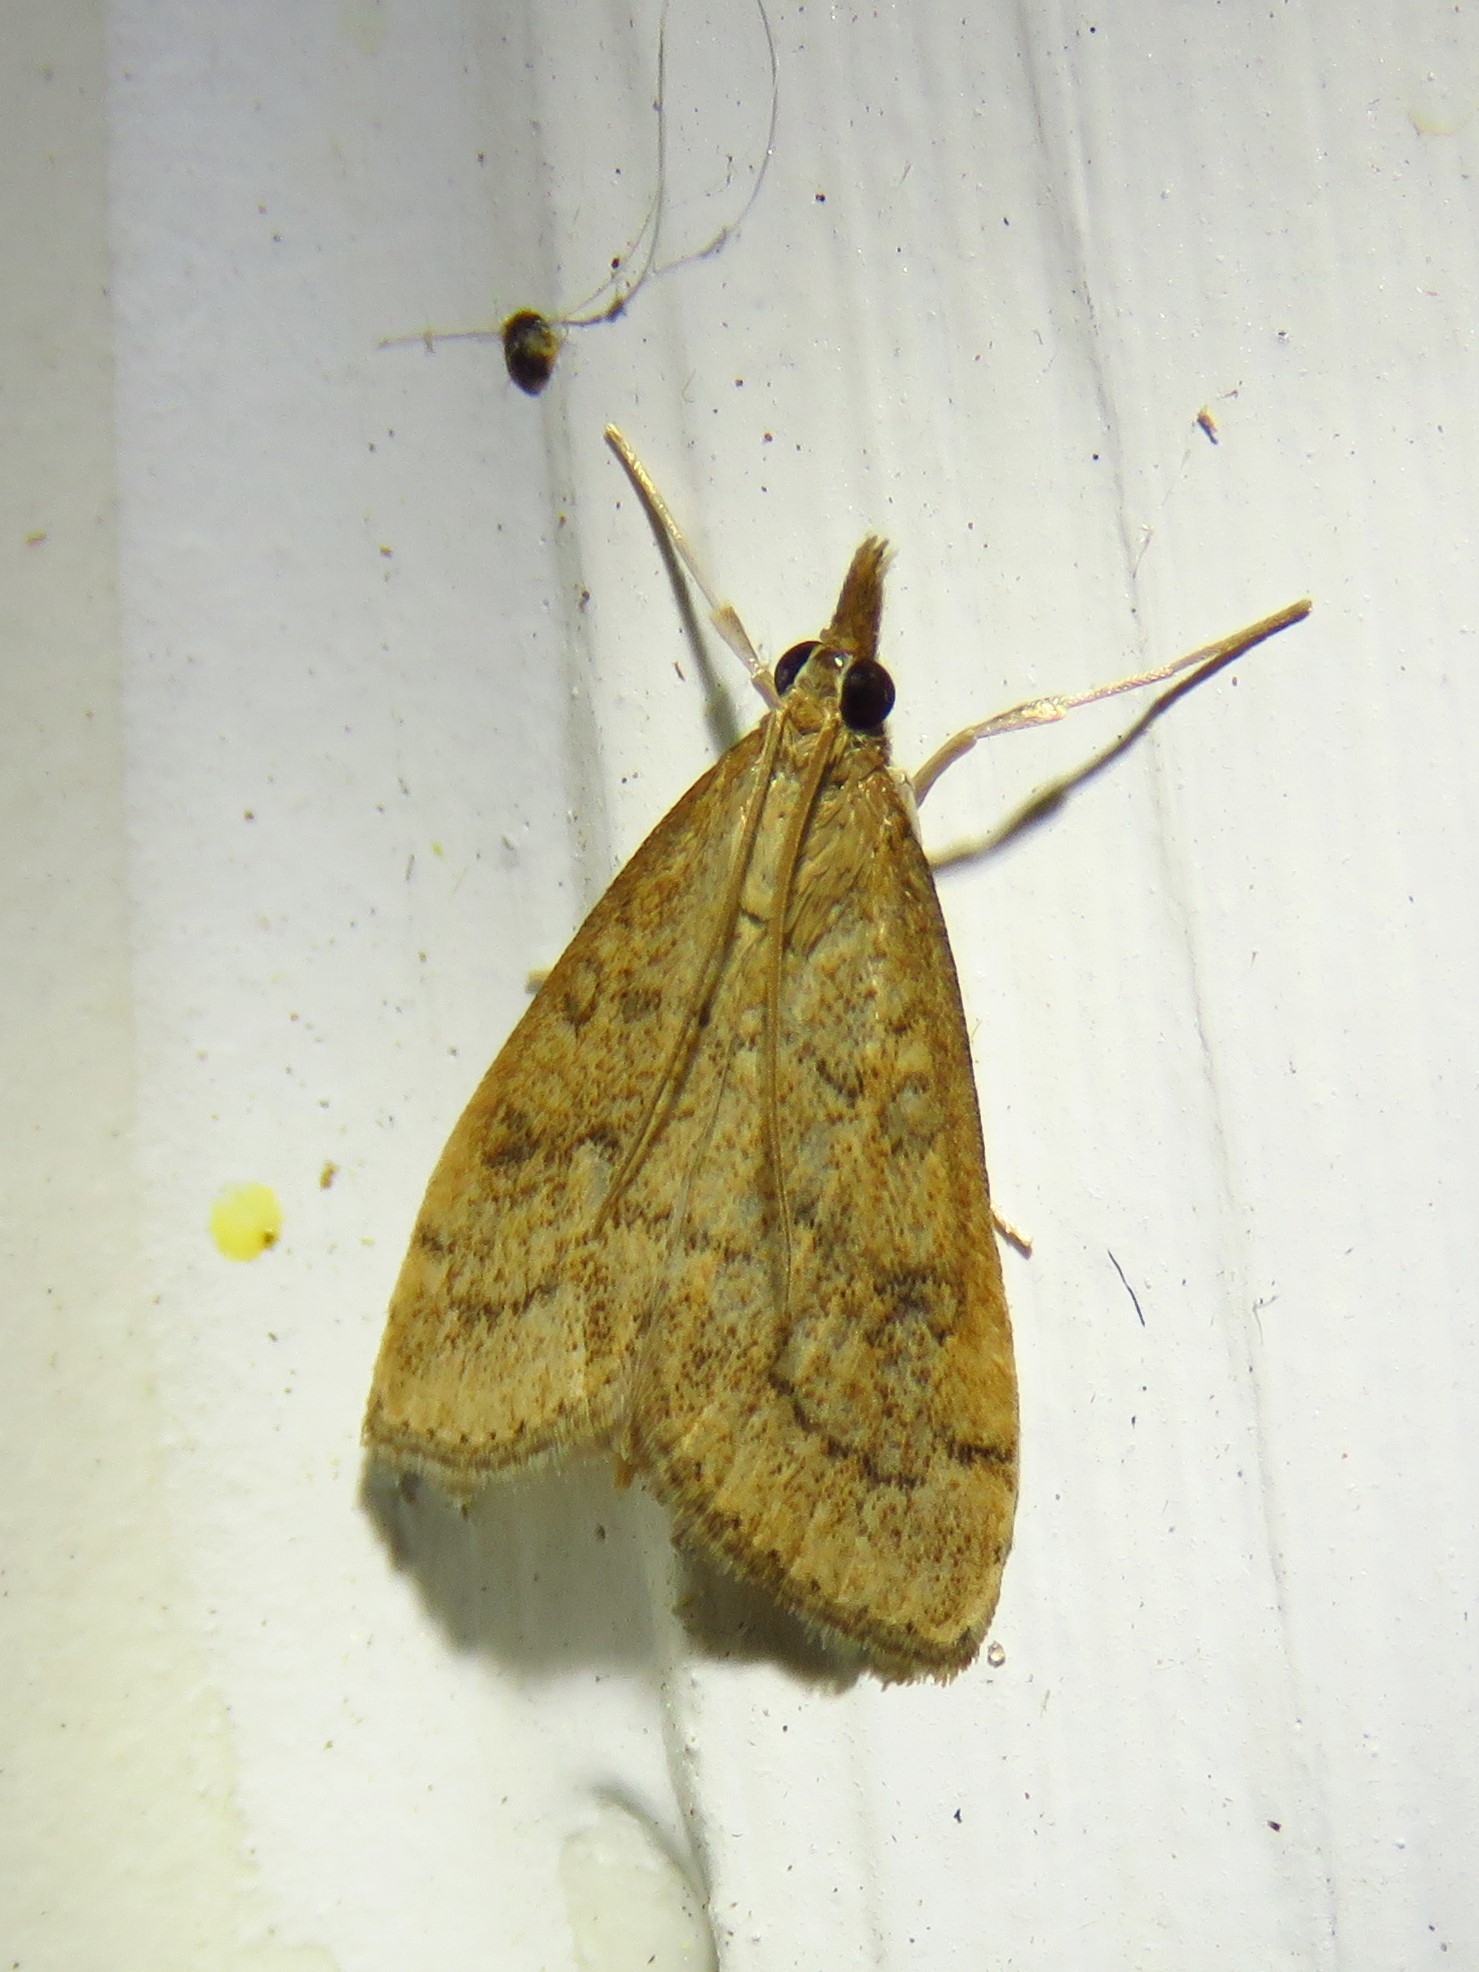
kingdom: Animalia
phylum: Arthropoda
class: Insecta
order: Lepidoptera
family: Crambidae
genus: Udea
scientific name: Udea rubigalis
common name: Celery leaftier moth
